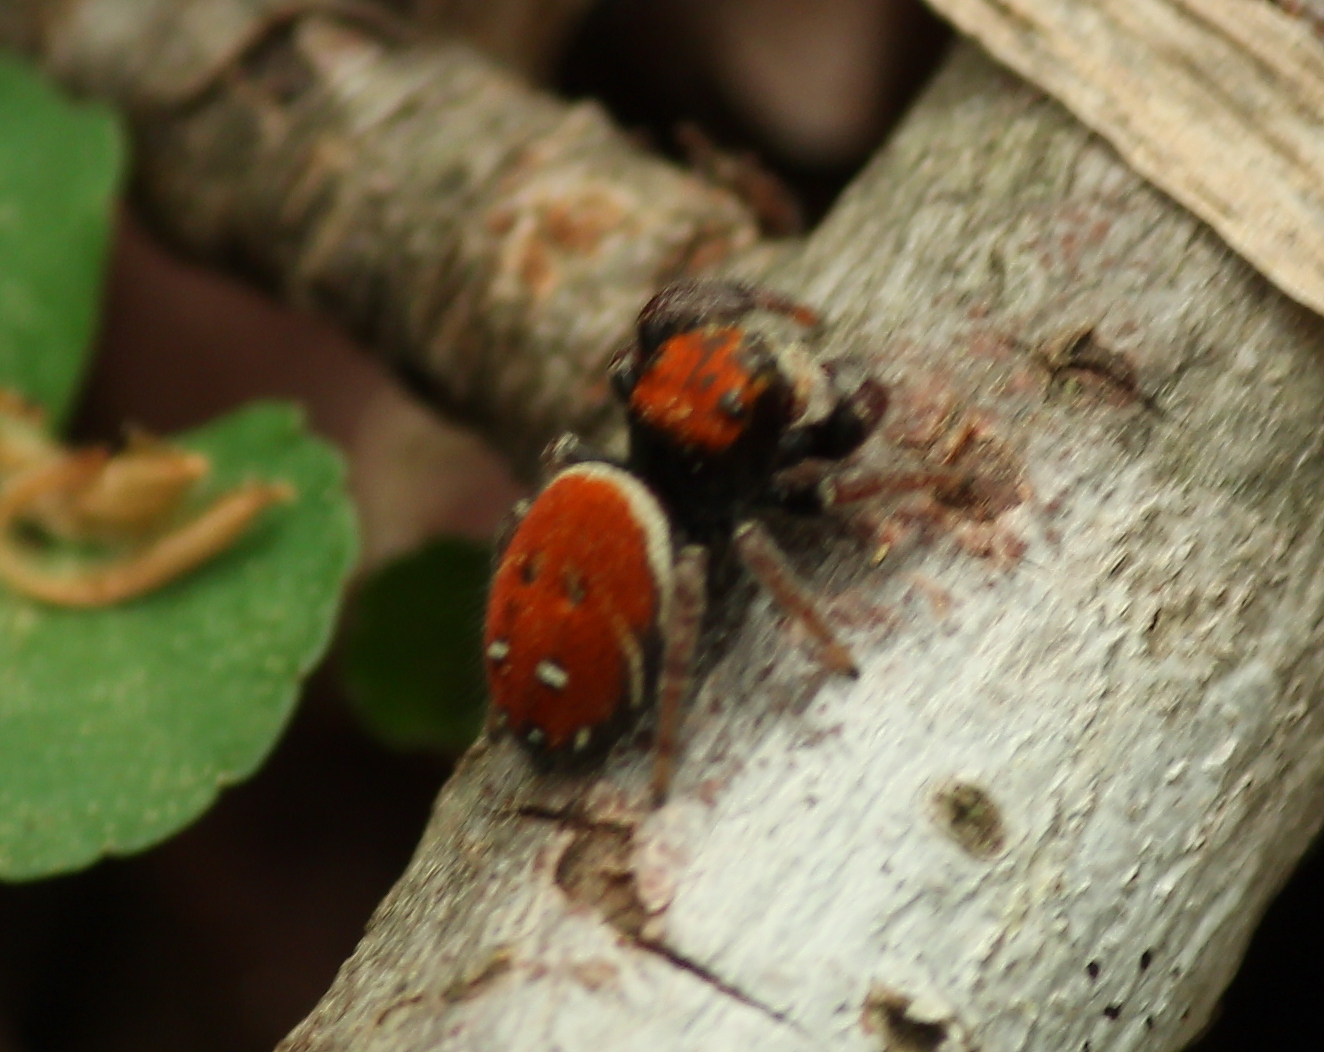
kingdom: Animalia
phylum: Arthropoda
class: Arachnida
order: Araneae
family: Salticidae
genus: Phidippus
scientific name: Phidippus whitmani
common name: Whitman's jumping spider
